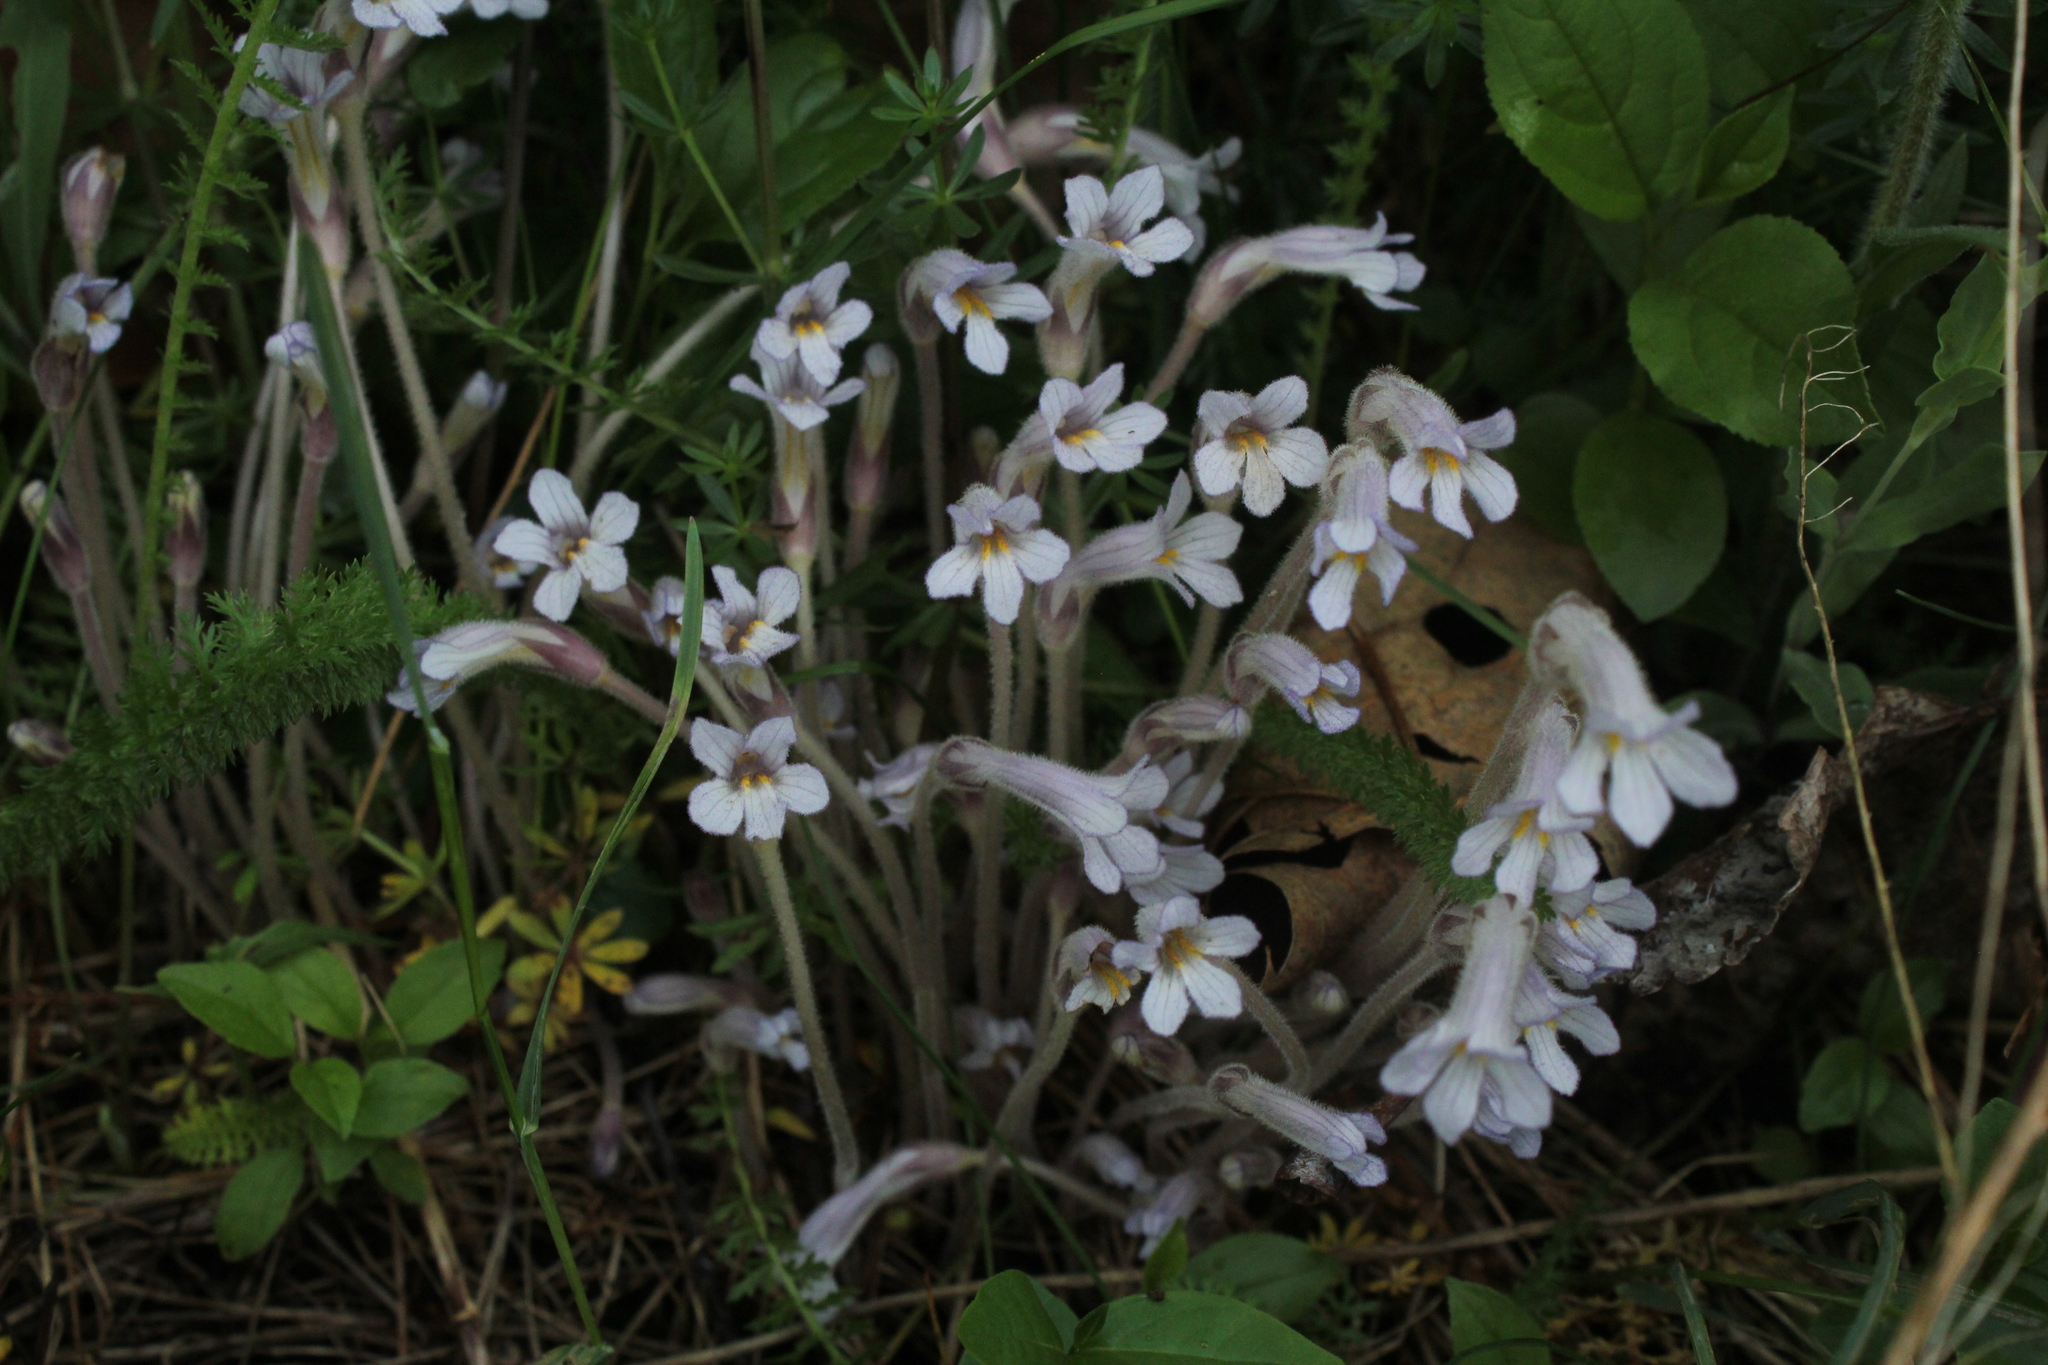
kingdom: Plantae
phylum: Tracheophyta
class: Magnoliopsida
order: Lamiales
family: Orobanchaceae
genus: Aphyllon
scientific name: Aphyllon uniflorum
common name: One-flowered broomrape
